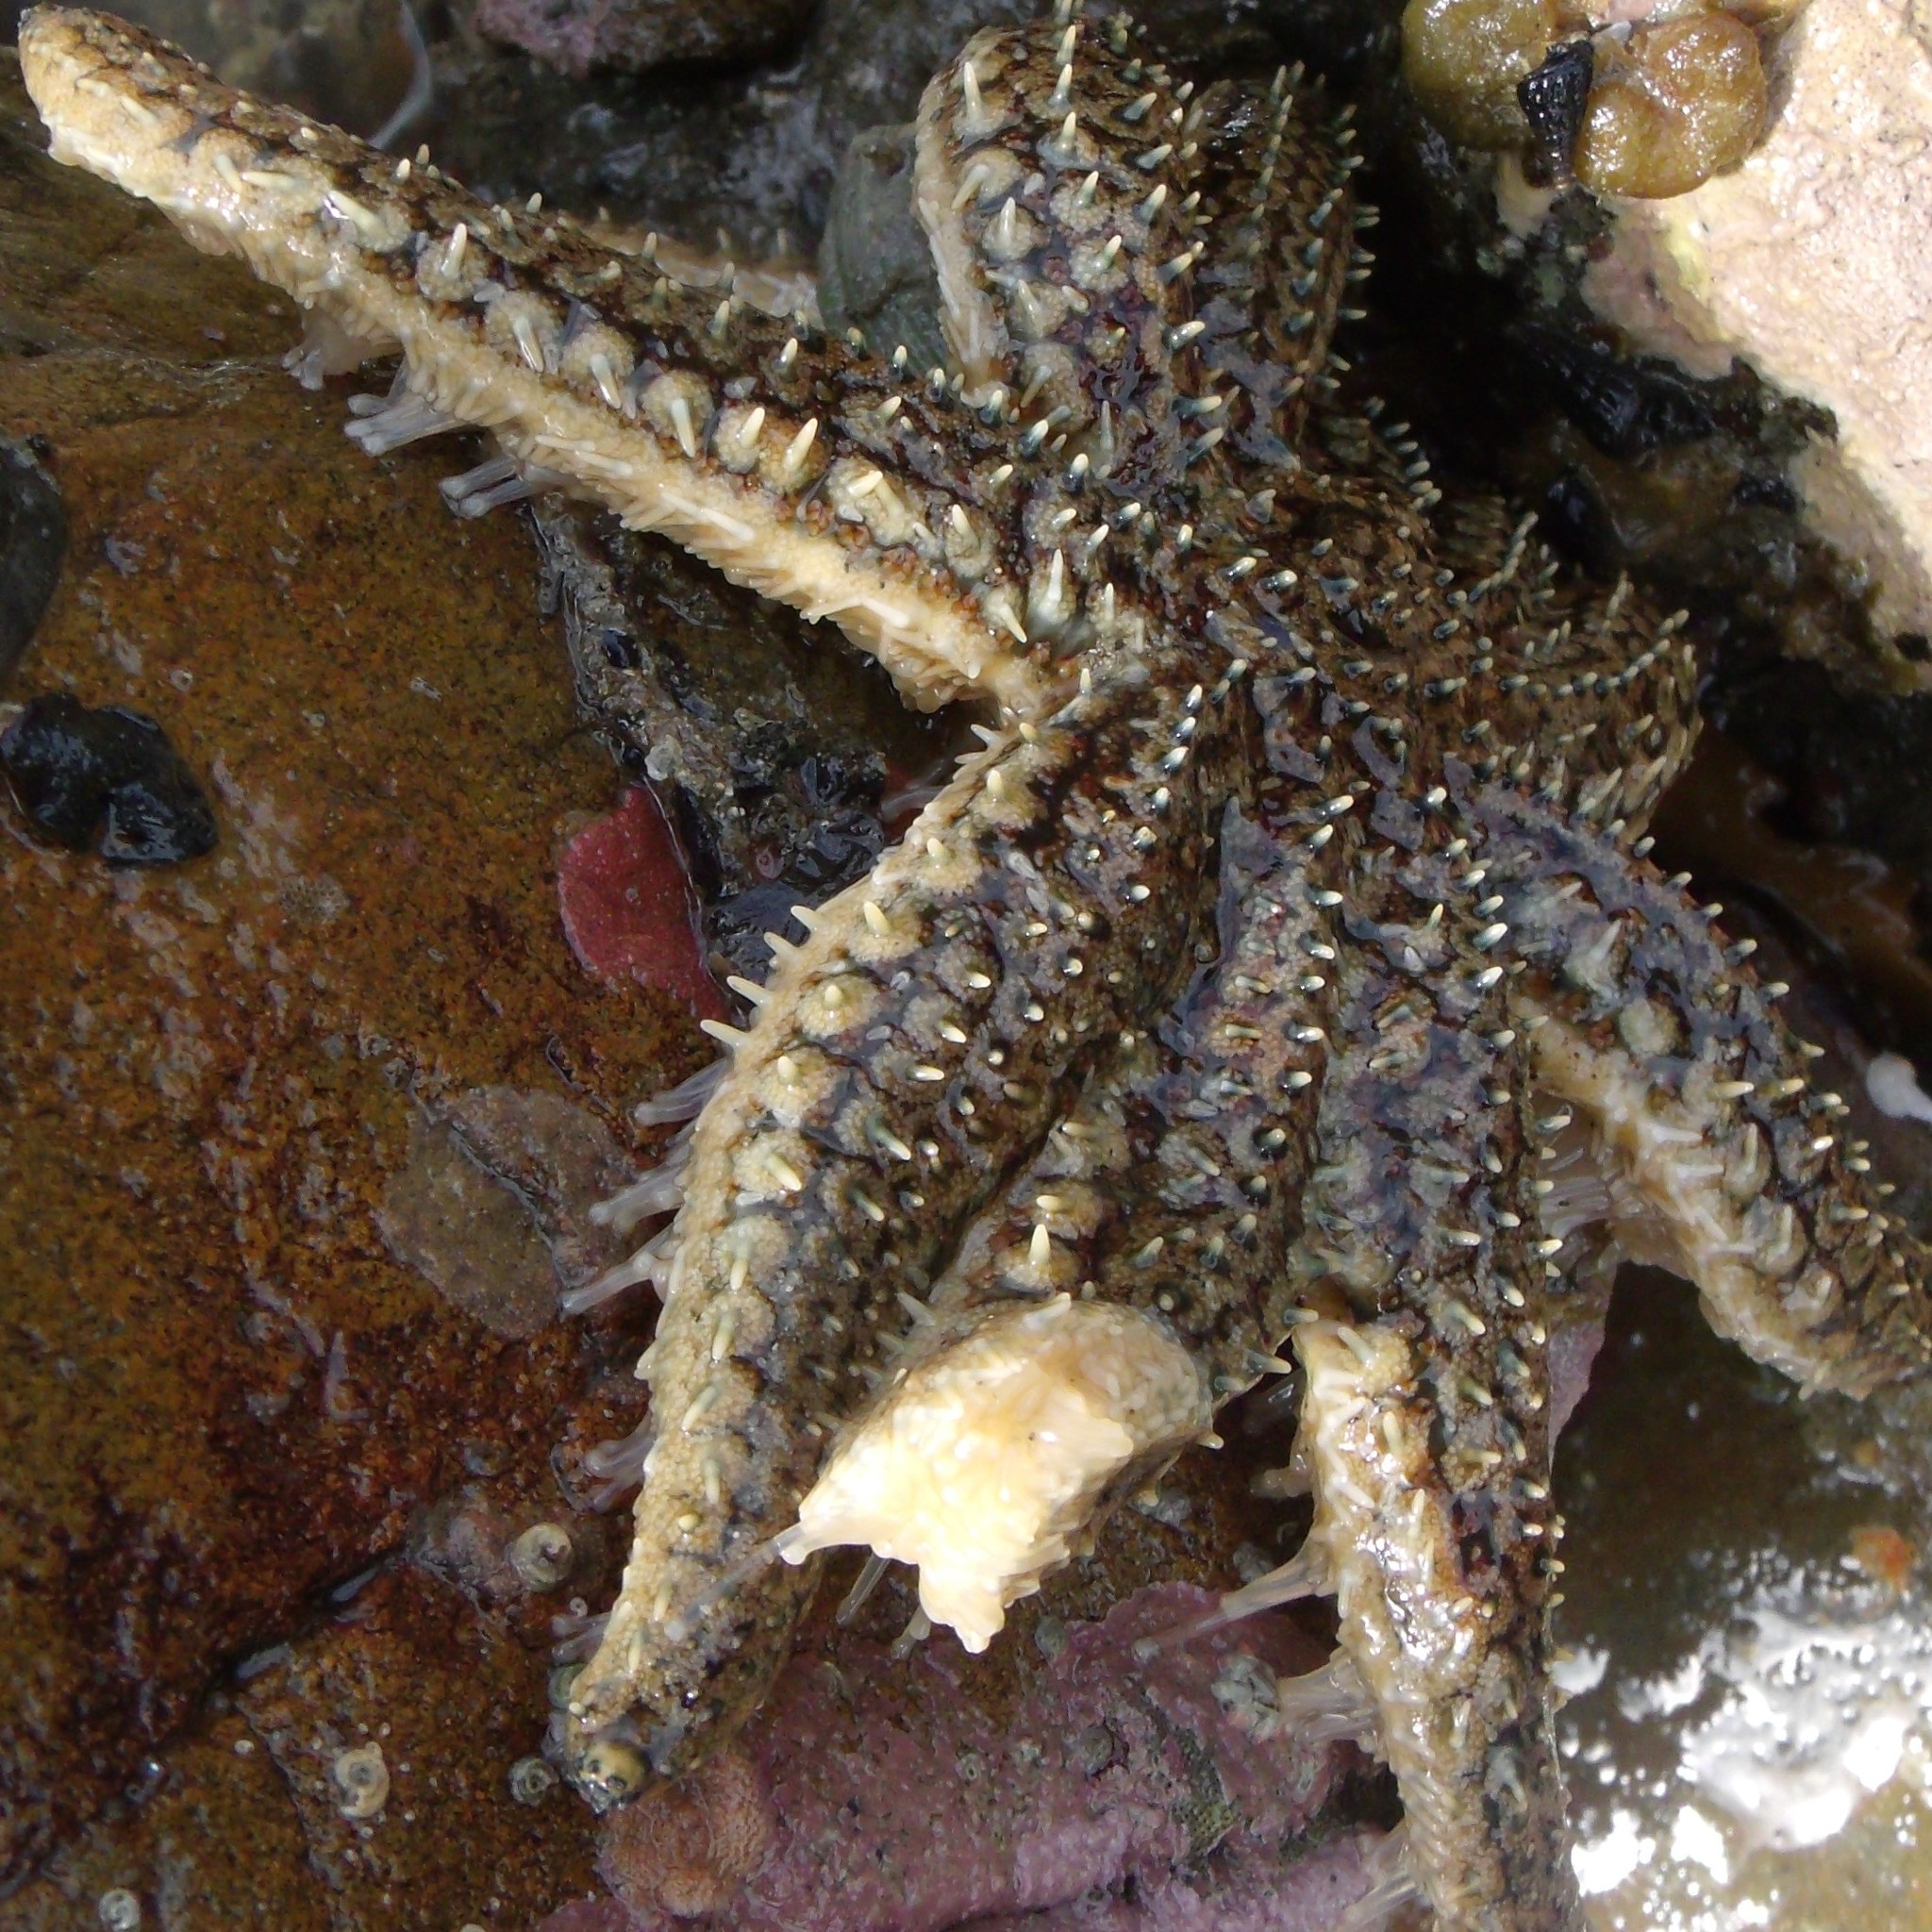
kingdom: Animalia
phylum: Echinodermata
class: Asteroidea
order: Forcipulatida
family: Asteriidae
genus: Coscinasterias
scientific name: Coscinasterias muricata
